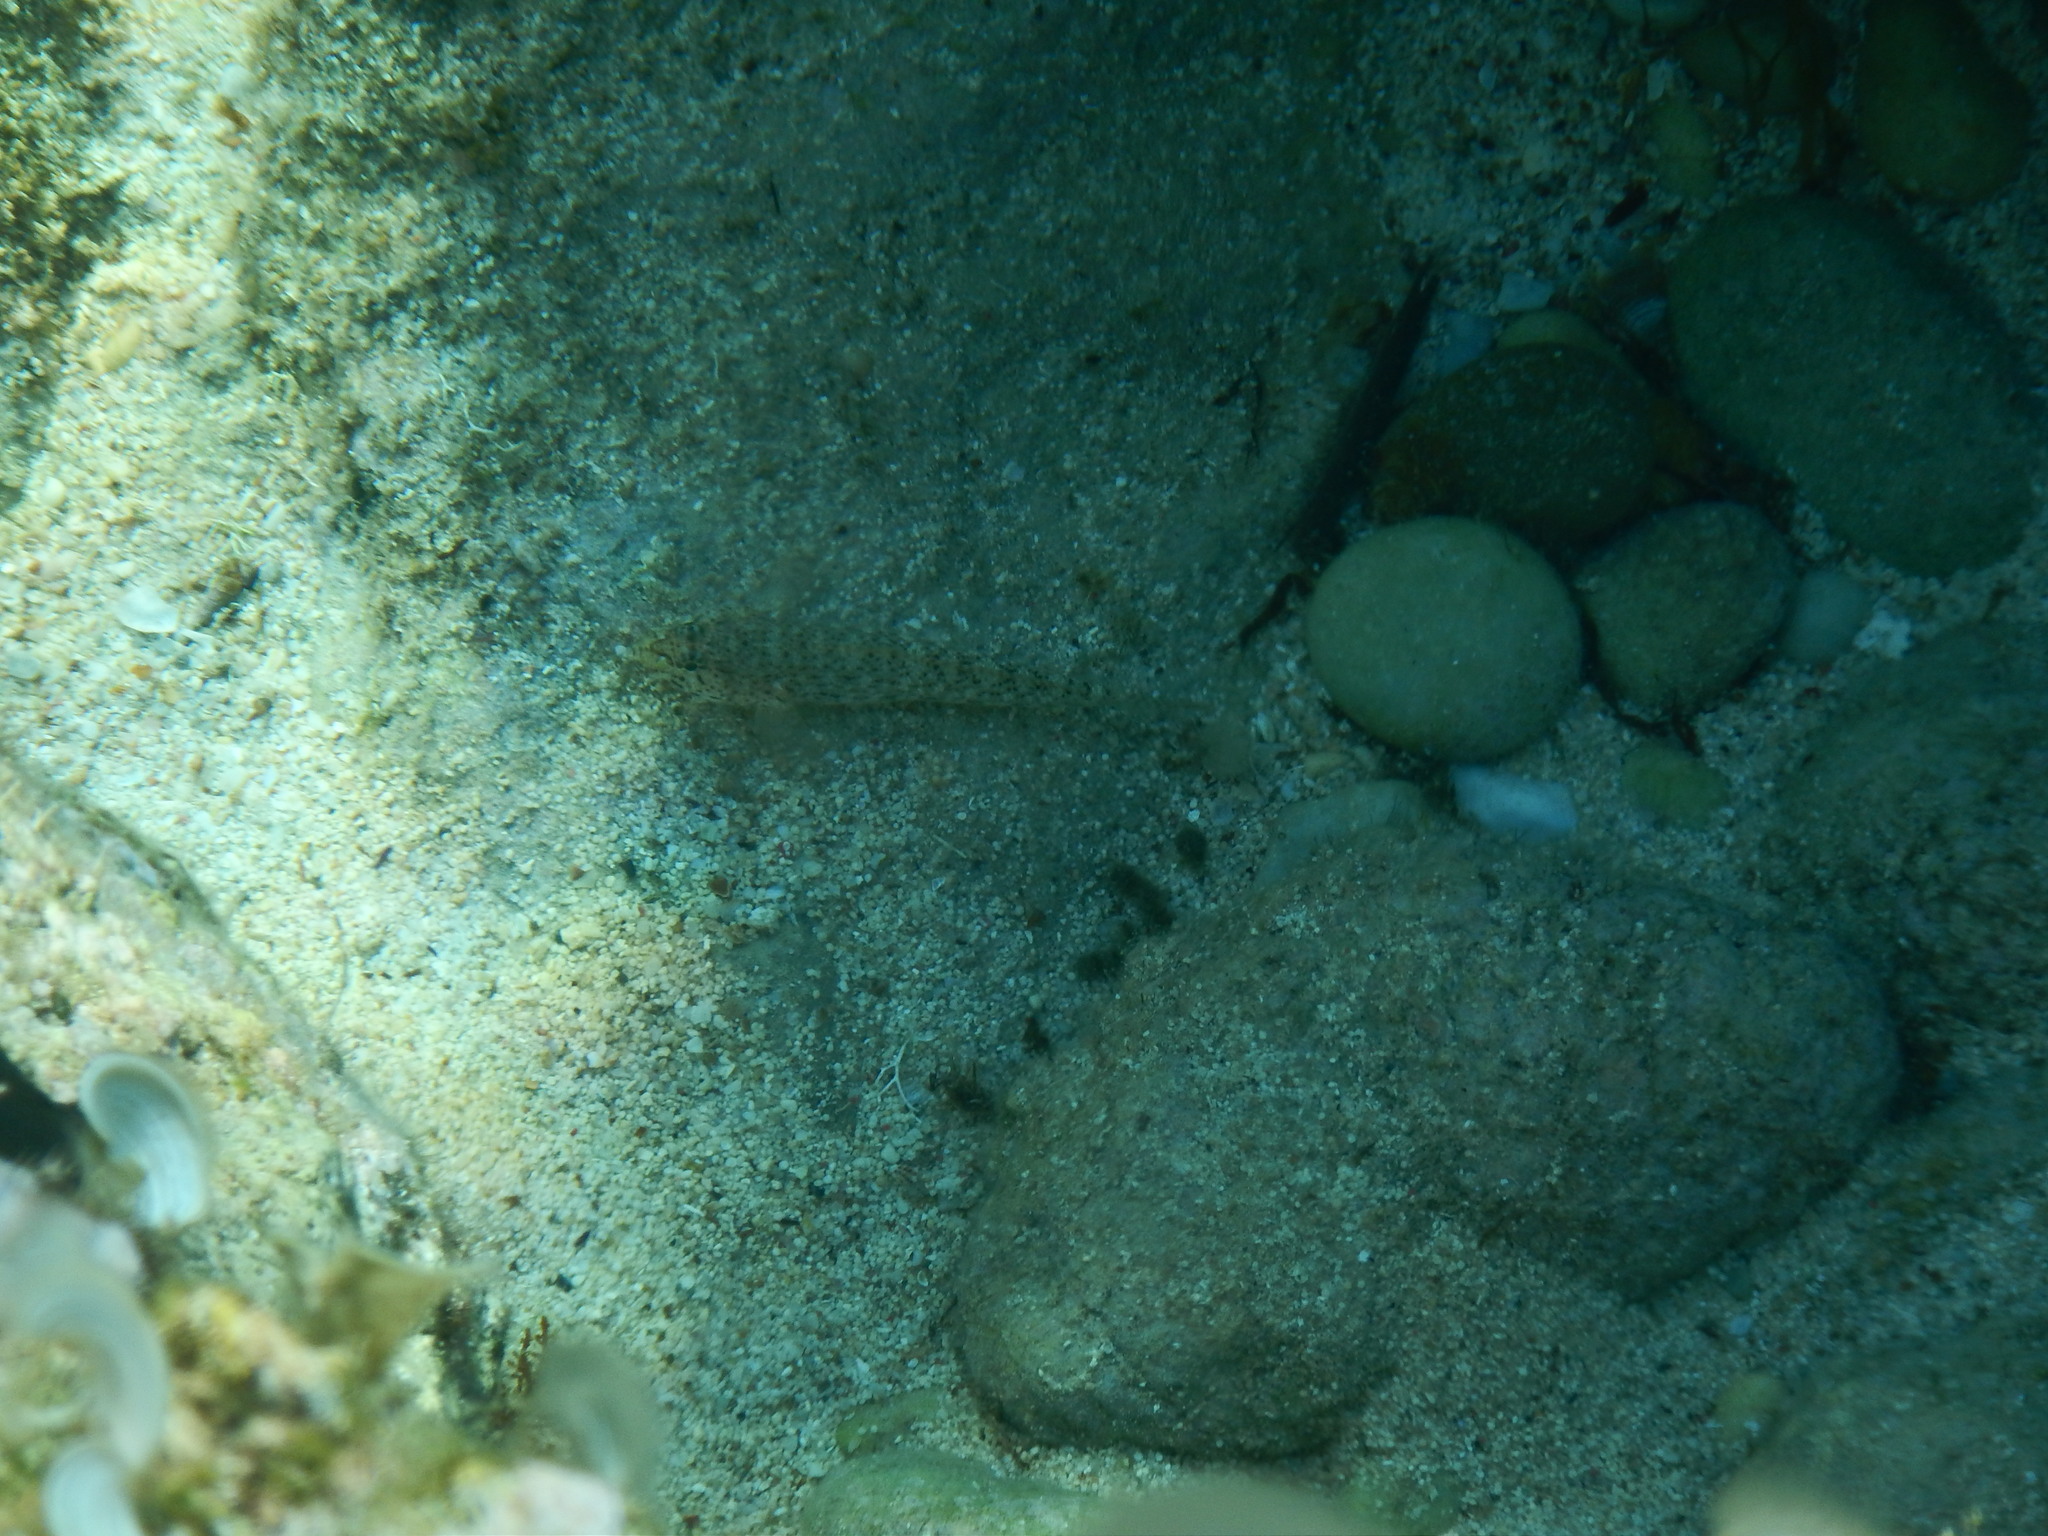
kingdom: Animalia
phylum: Chordata
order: Perciformes
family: Gobiidae
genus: Gobius
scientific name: Gobius incognitus
